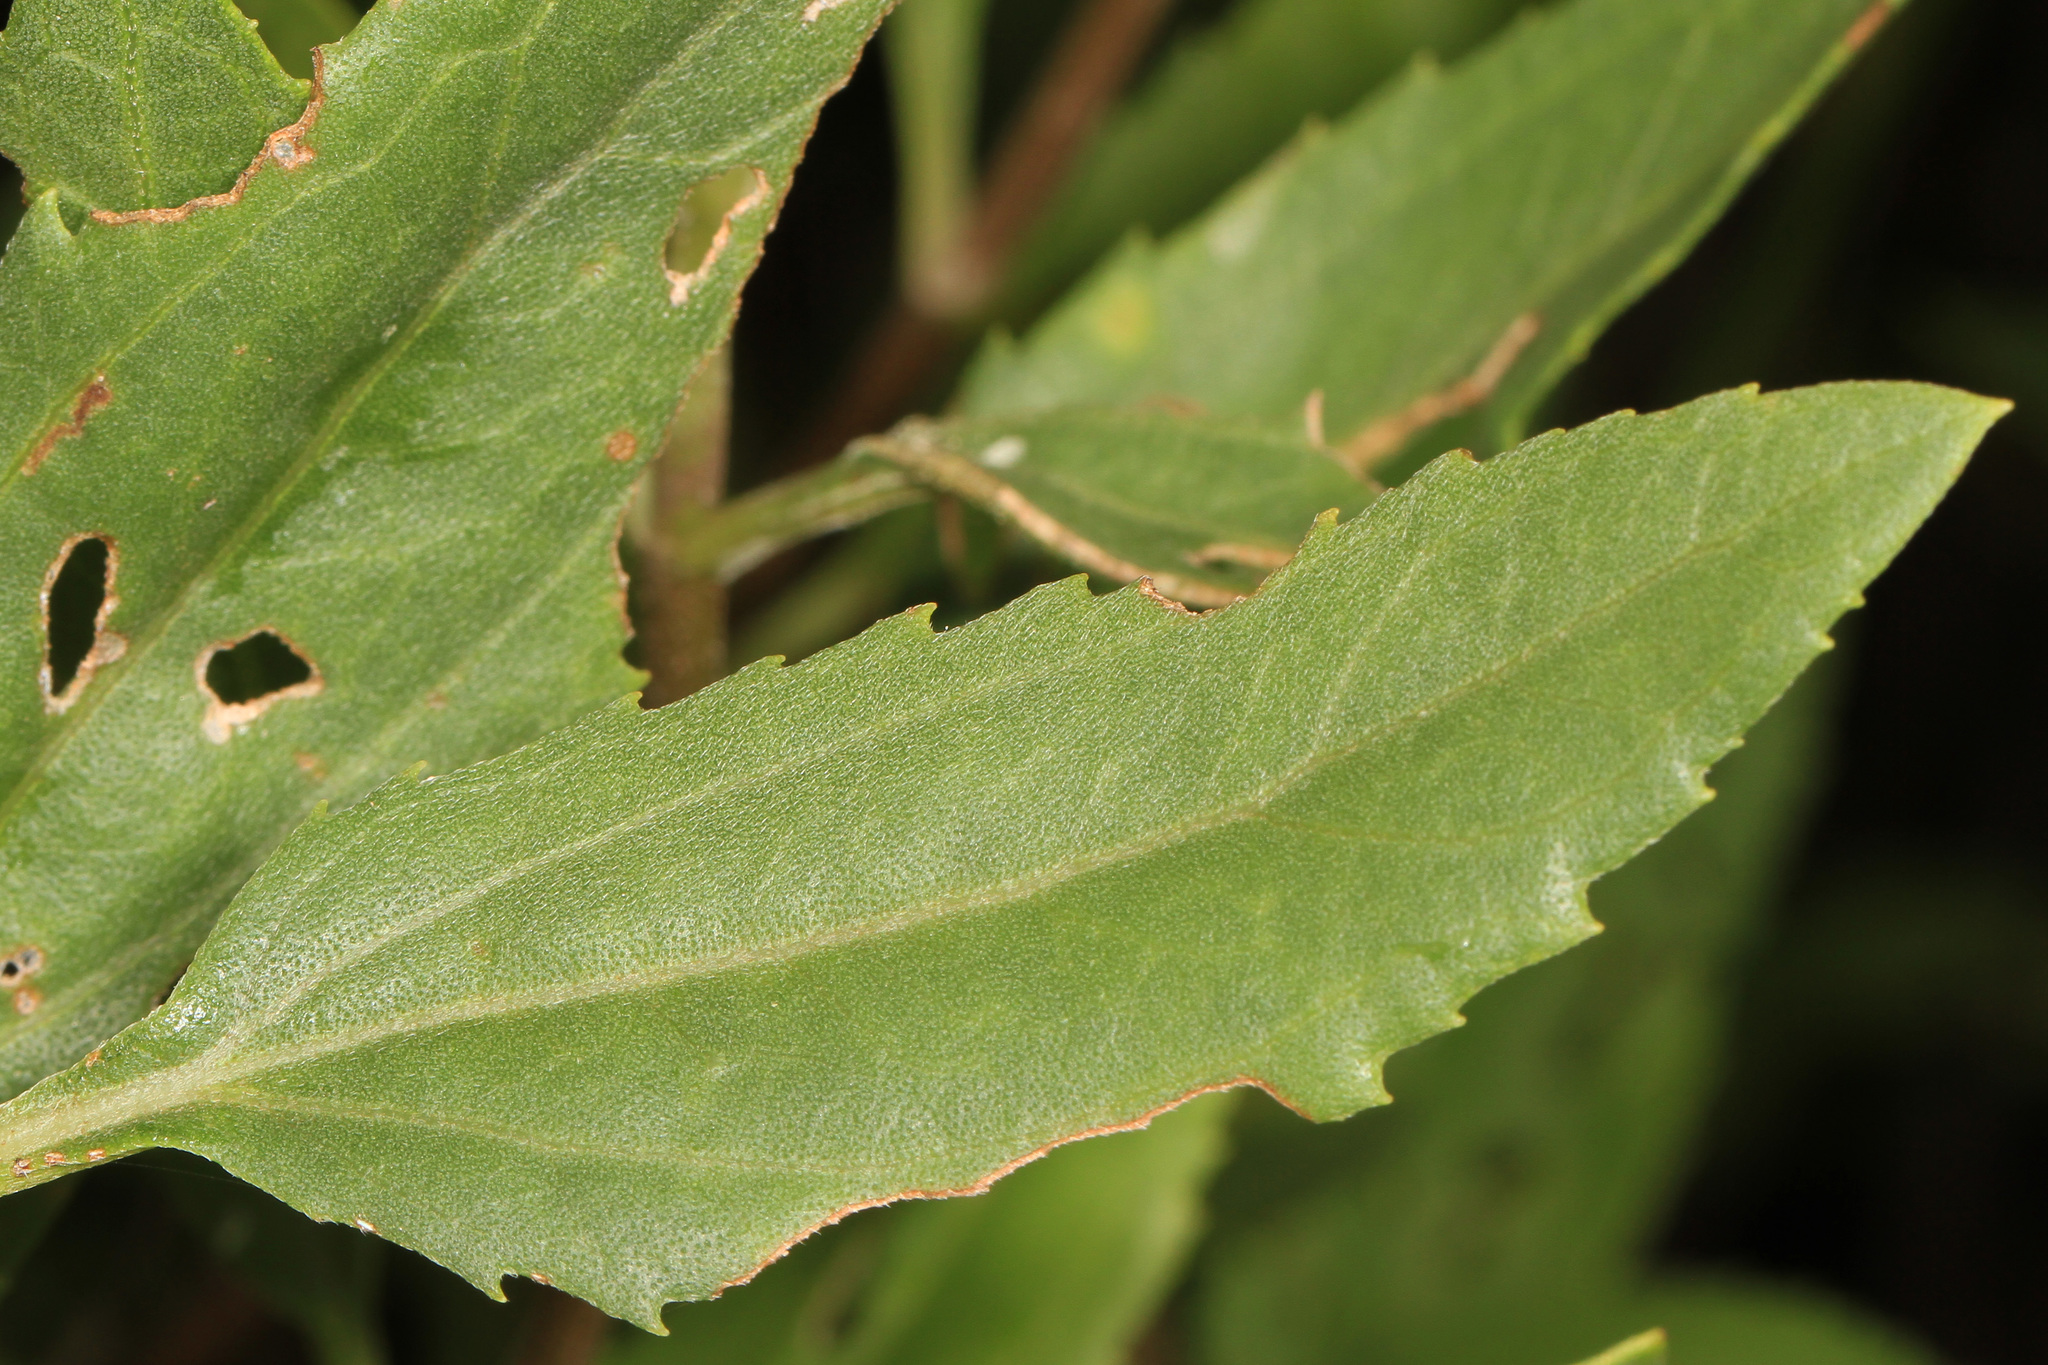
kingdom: Plantae
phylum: Tracheophyta
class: Magnoliopsida
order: Asterales
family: Asteraceae
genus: Iva
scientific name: Iva frutescens
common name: Big-leaved marsh-elder
